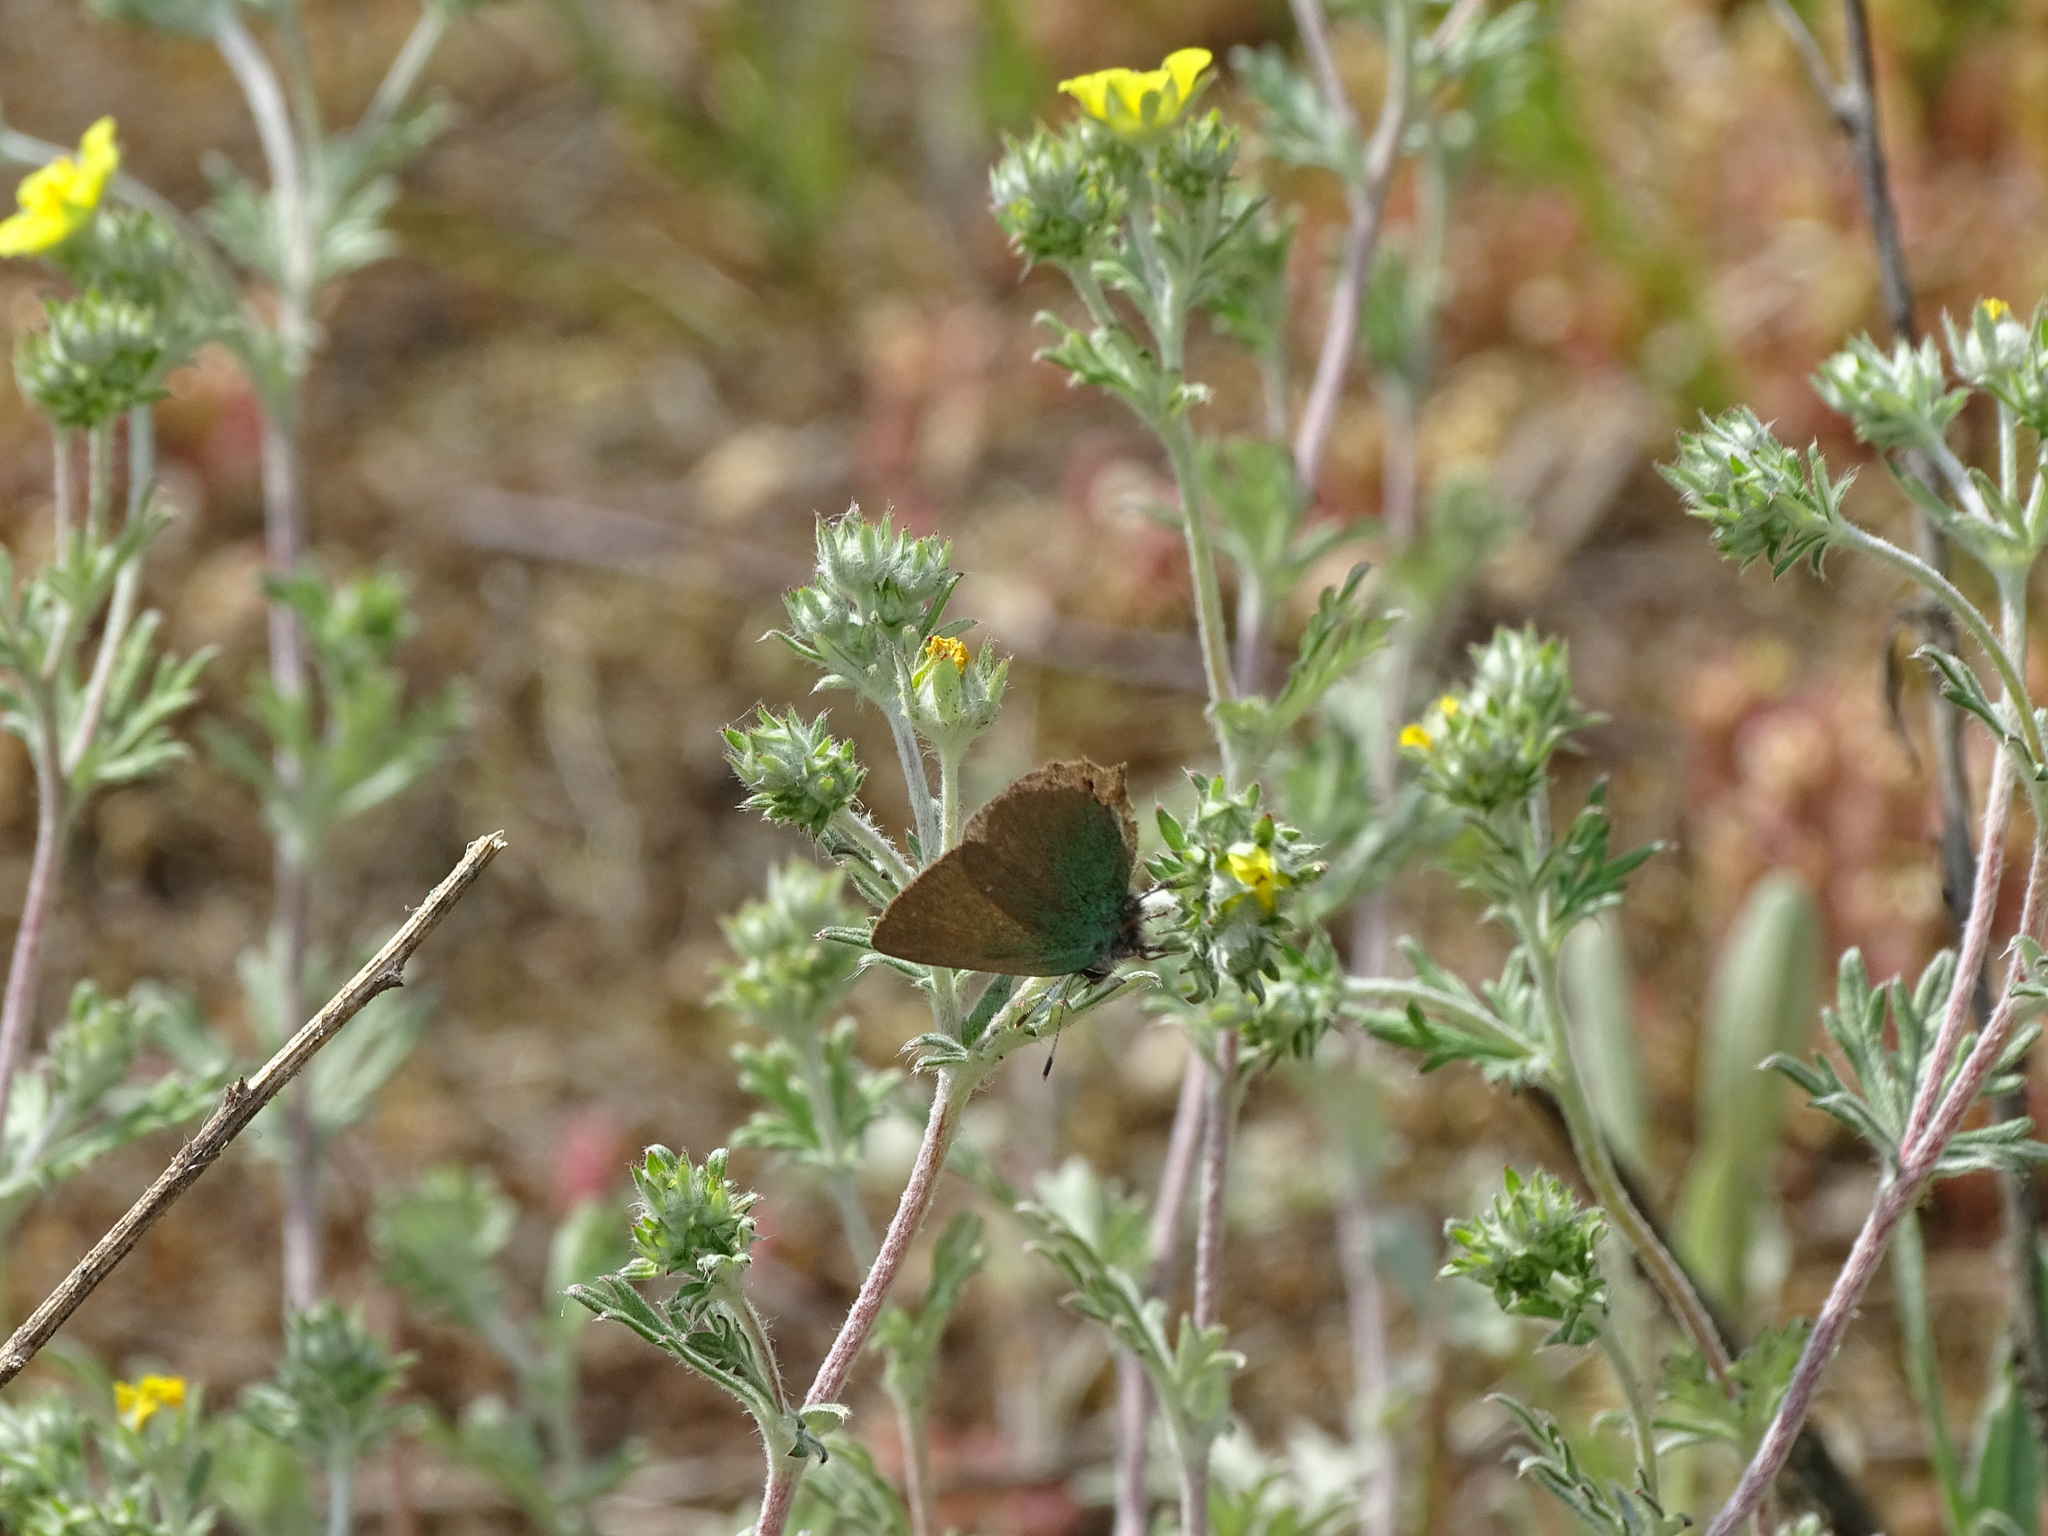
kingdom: Animalia
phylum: Arthropoda
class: Insecta
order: Lepidoptera
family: Lycaenidae
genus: Callophrys
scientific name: Callophrys rubi
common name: Green hairstreak
